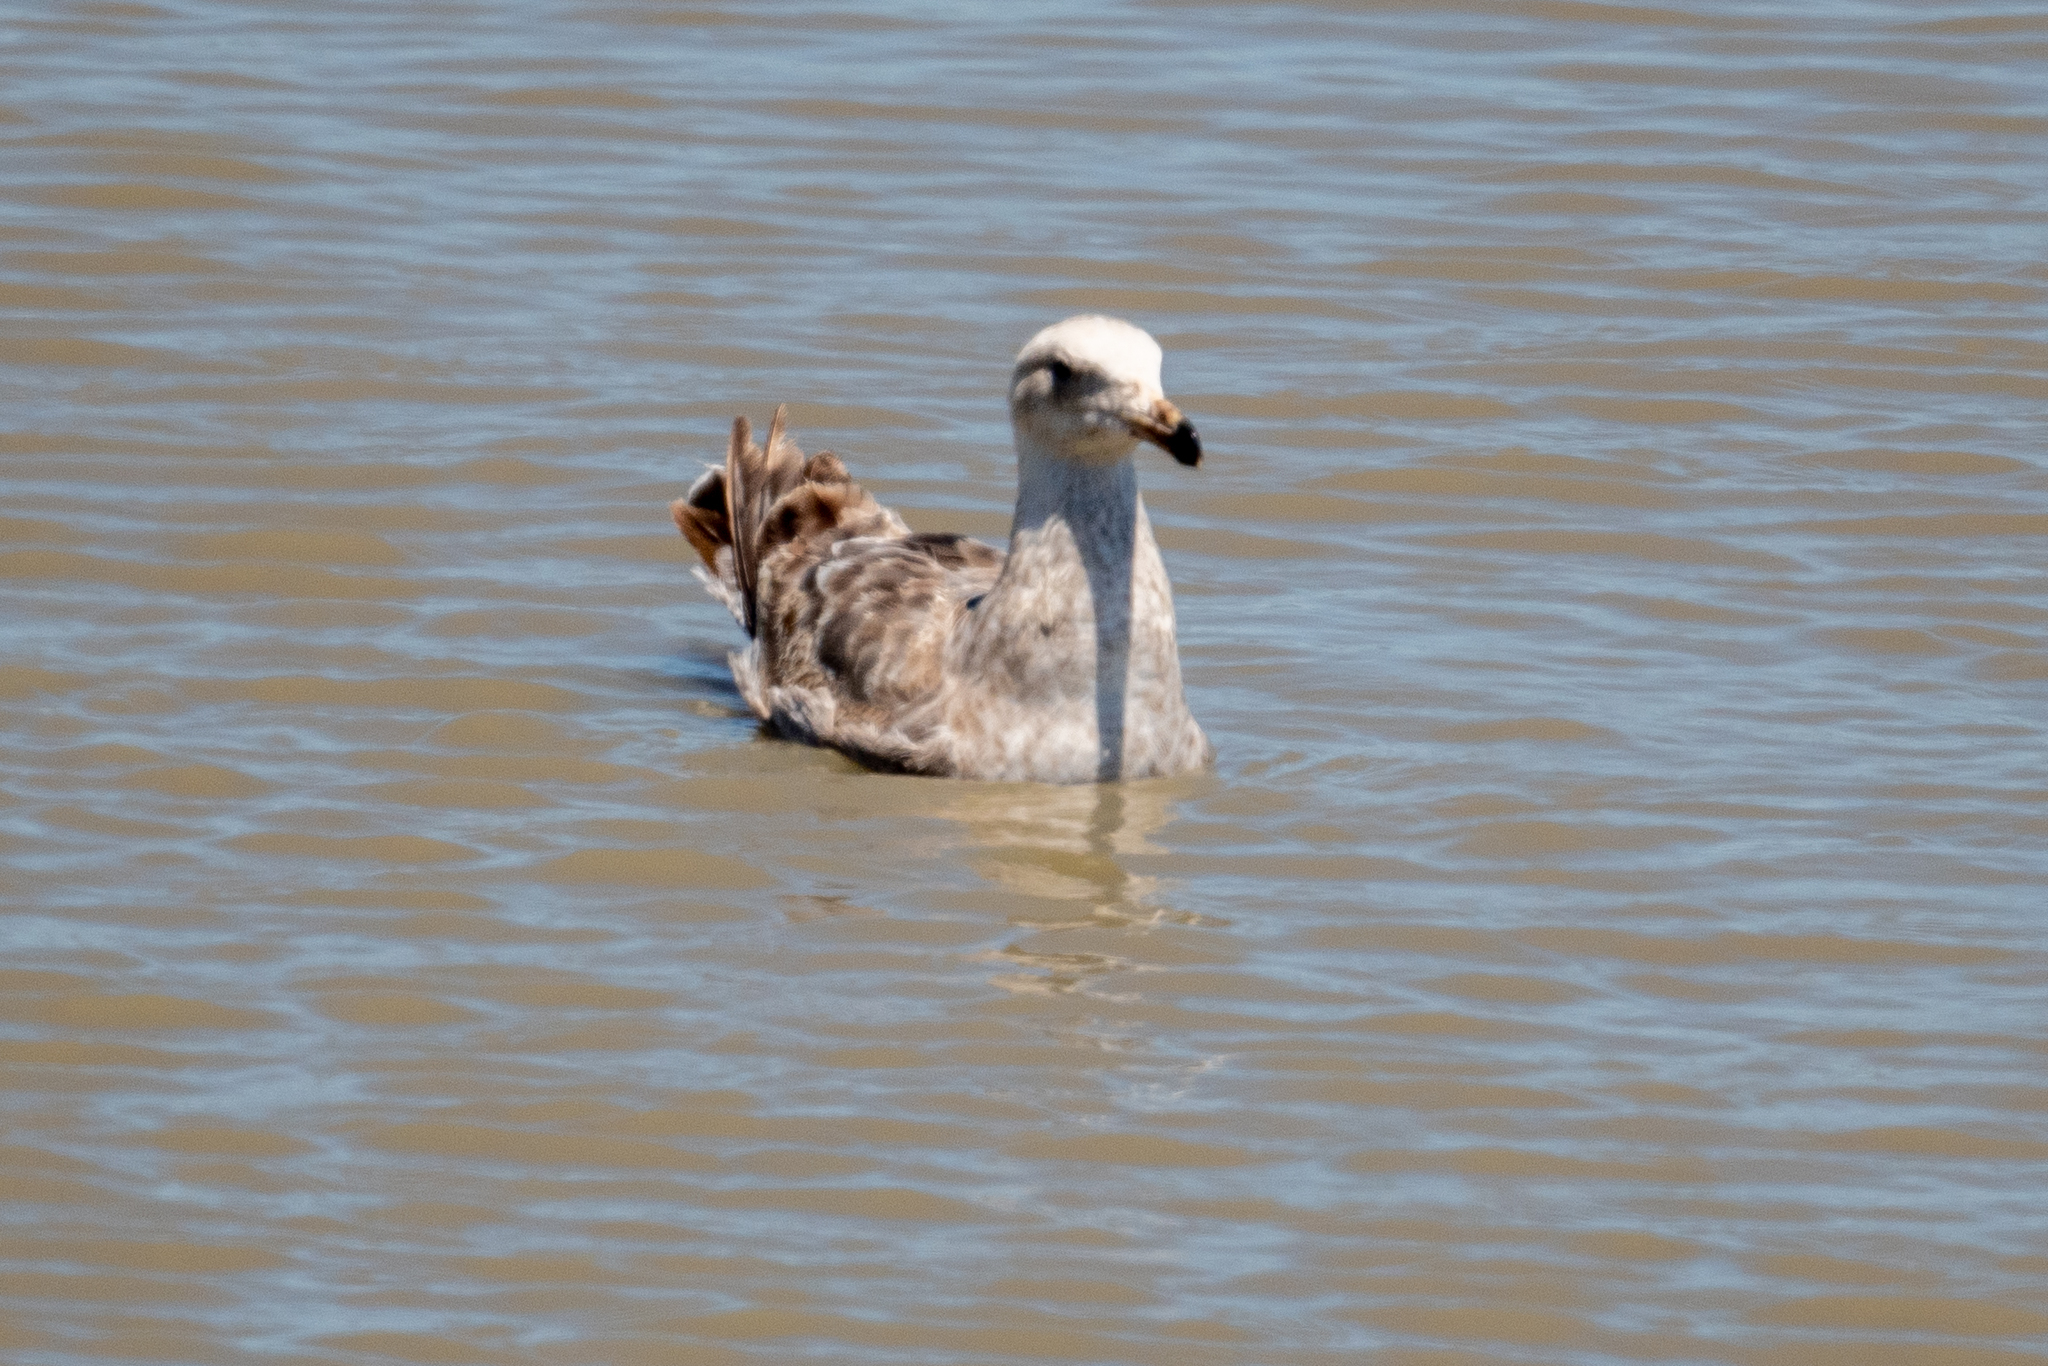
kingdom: Animalia
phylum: Chordata
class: Aves
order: Charadriiformes
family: Laridae
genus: Larus
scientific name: Larus occidentalis
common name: Western gull
